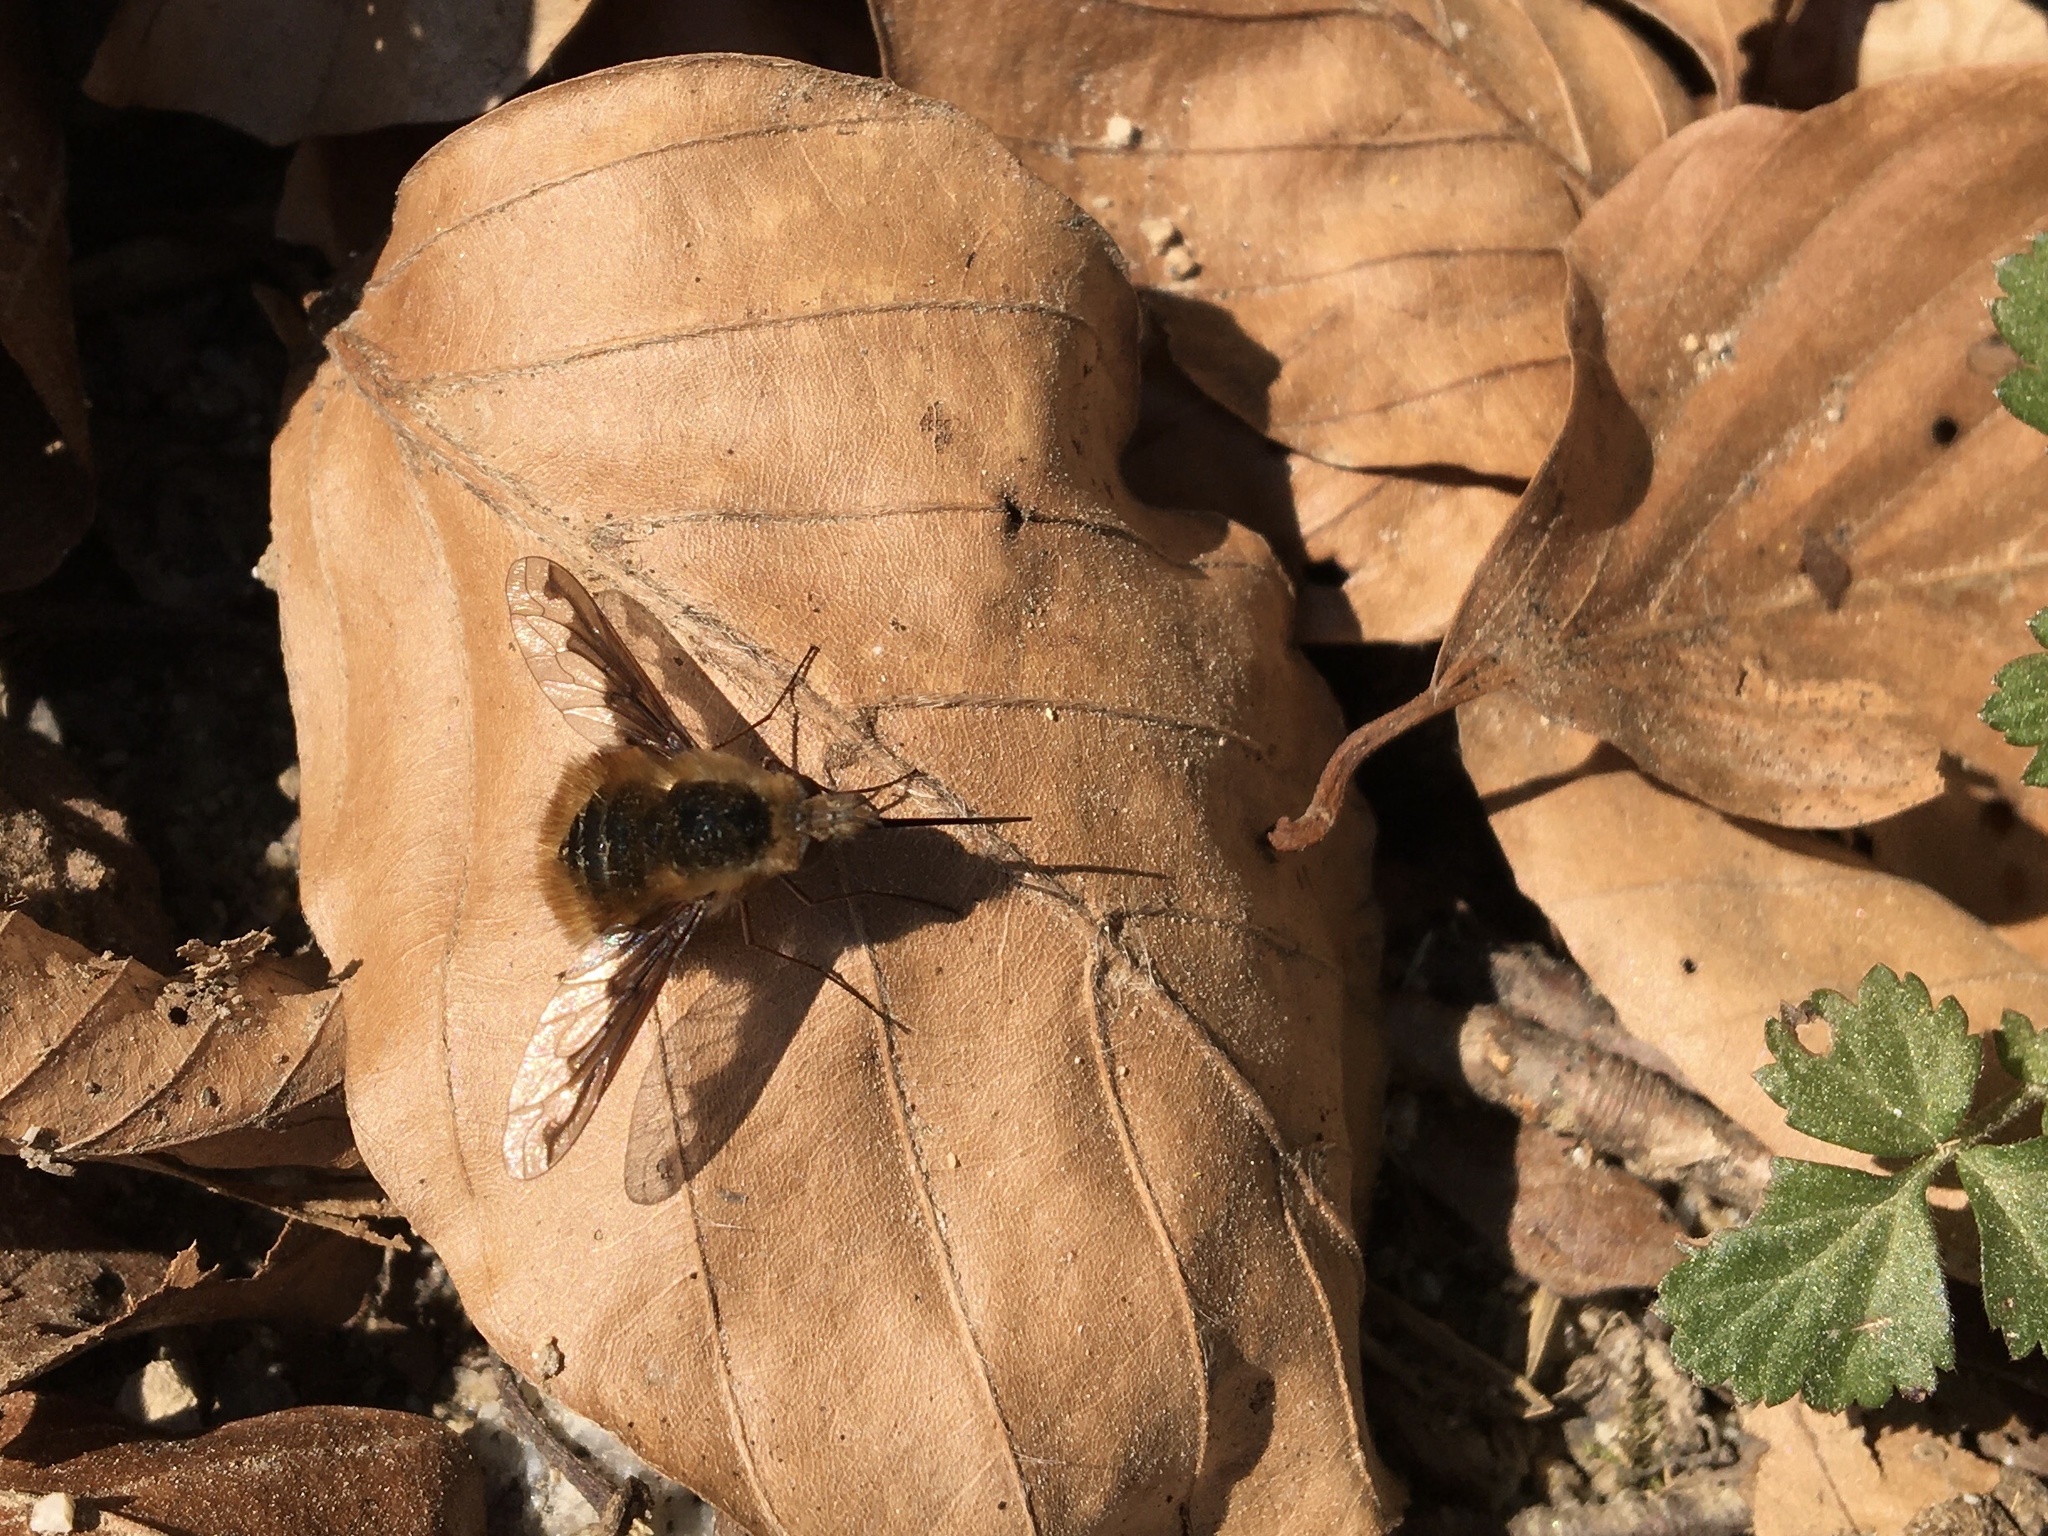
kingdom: Animalia
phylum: Arthropoda
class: Insecta
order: Diptera
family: Bombyliidae
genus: Bombylius
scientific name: Bombylius major
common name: Bee fly
